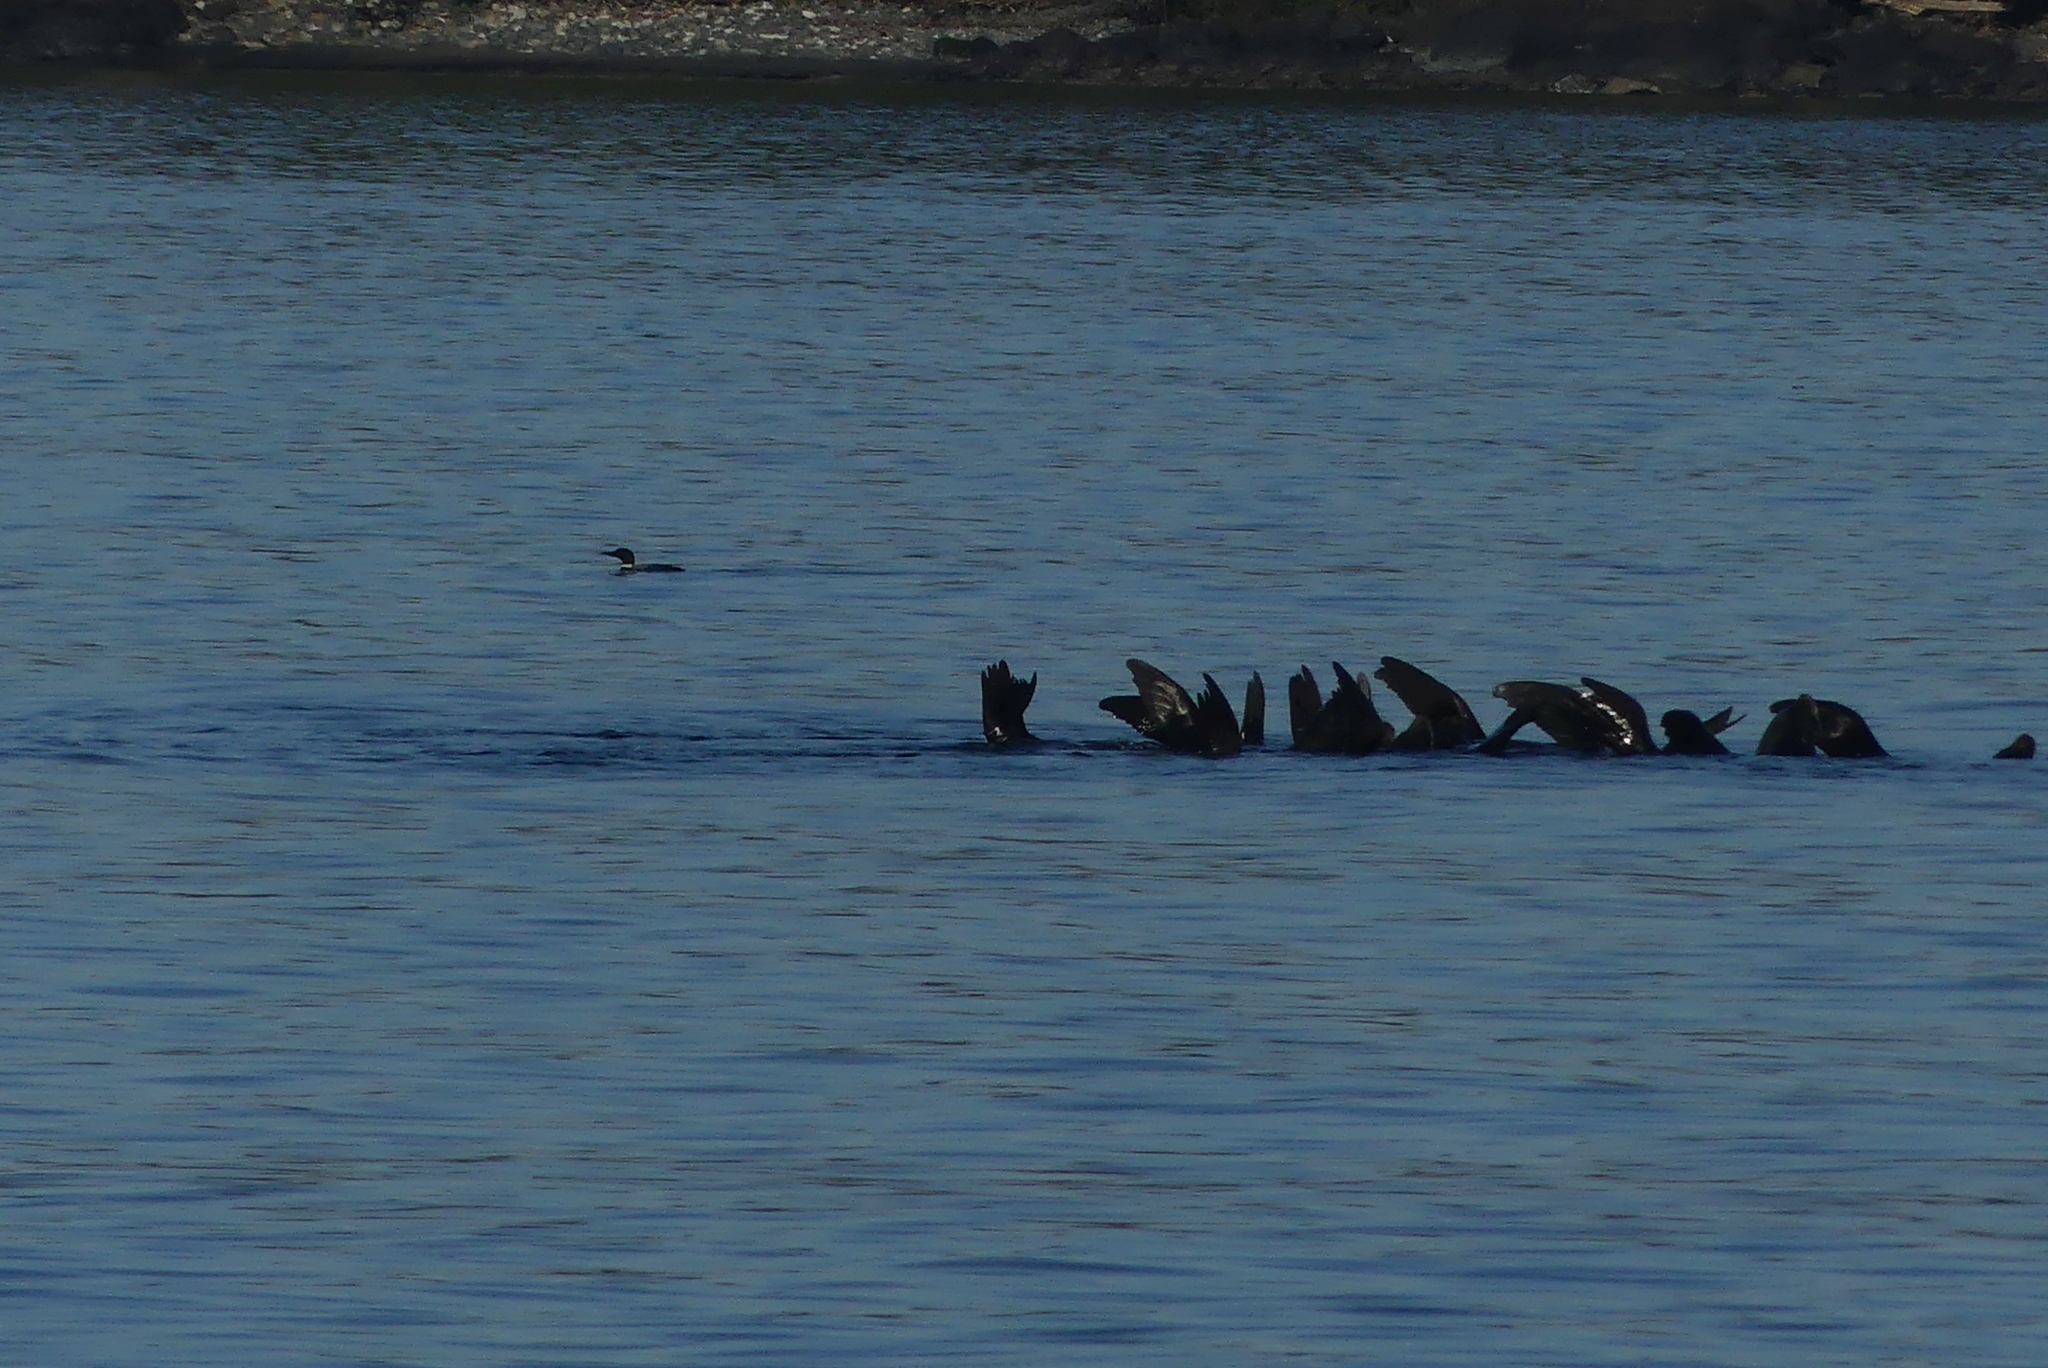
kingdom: Animalia
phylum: Chordata
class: Aves
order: Gaviiformes
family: Gaviidae
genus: Gavia
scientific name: Gavia immer
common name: Common loon
